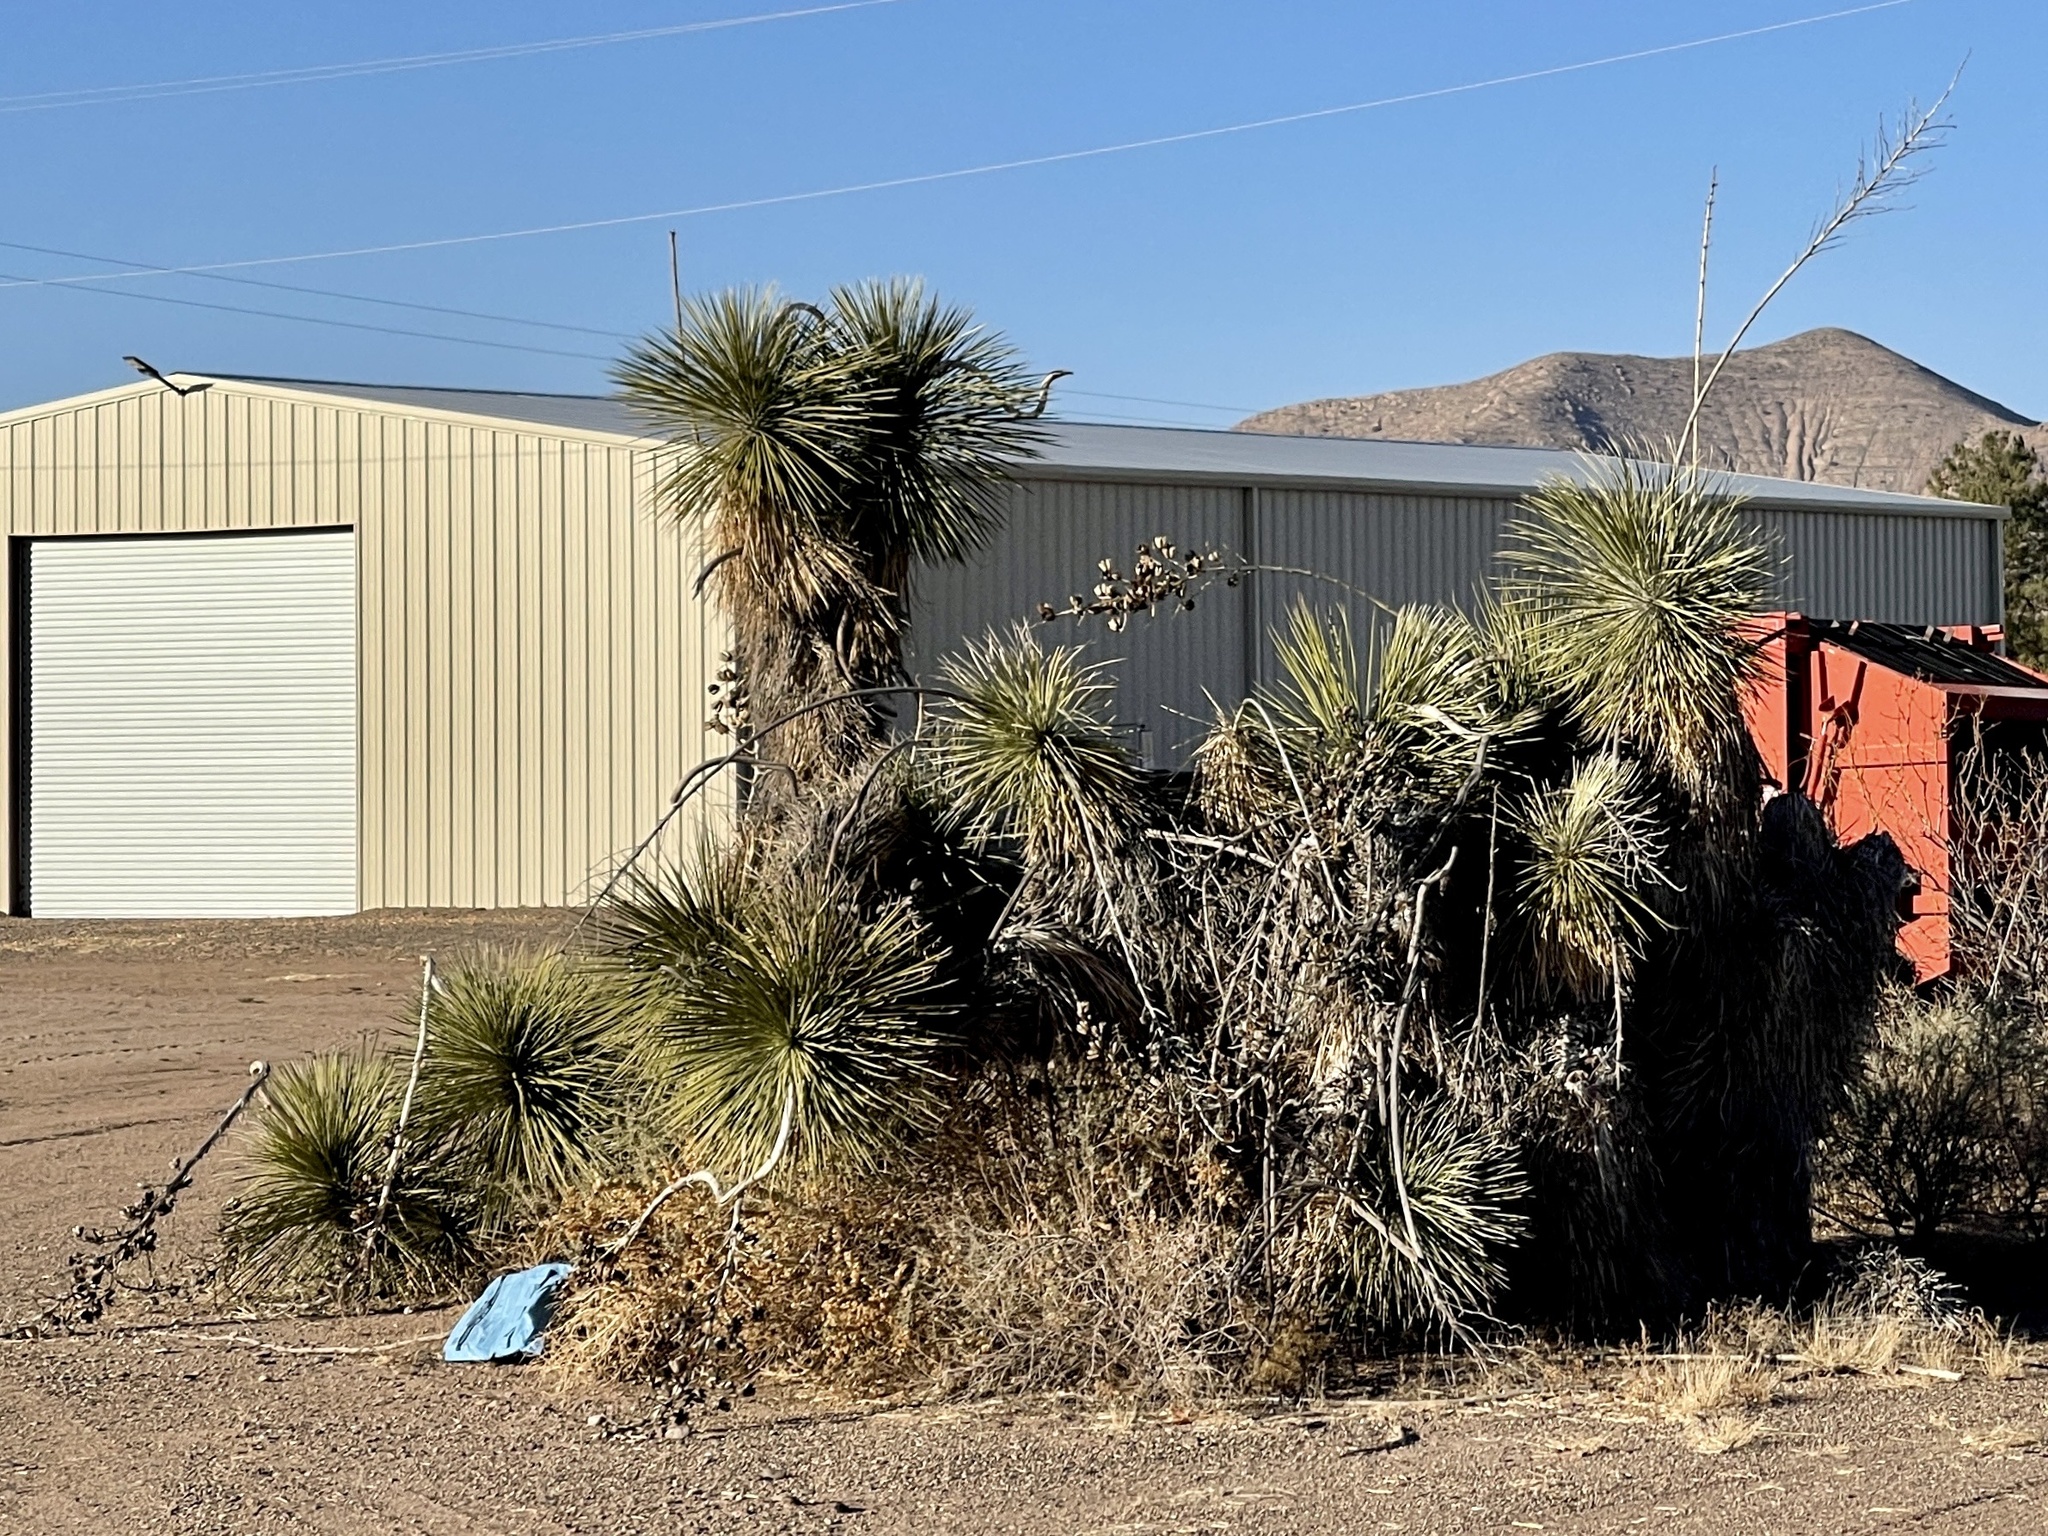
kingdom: Plantae
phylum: Tracheophyta
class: Liliopsida
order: Asparagales
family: Asparagaceae
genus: Yucca
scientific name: Yucca elata
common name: Palmella
